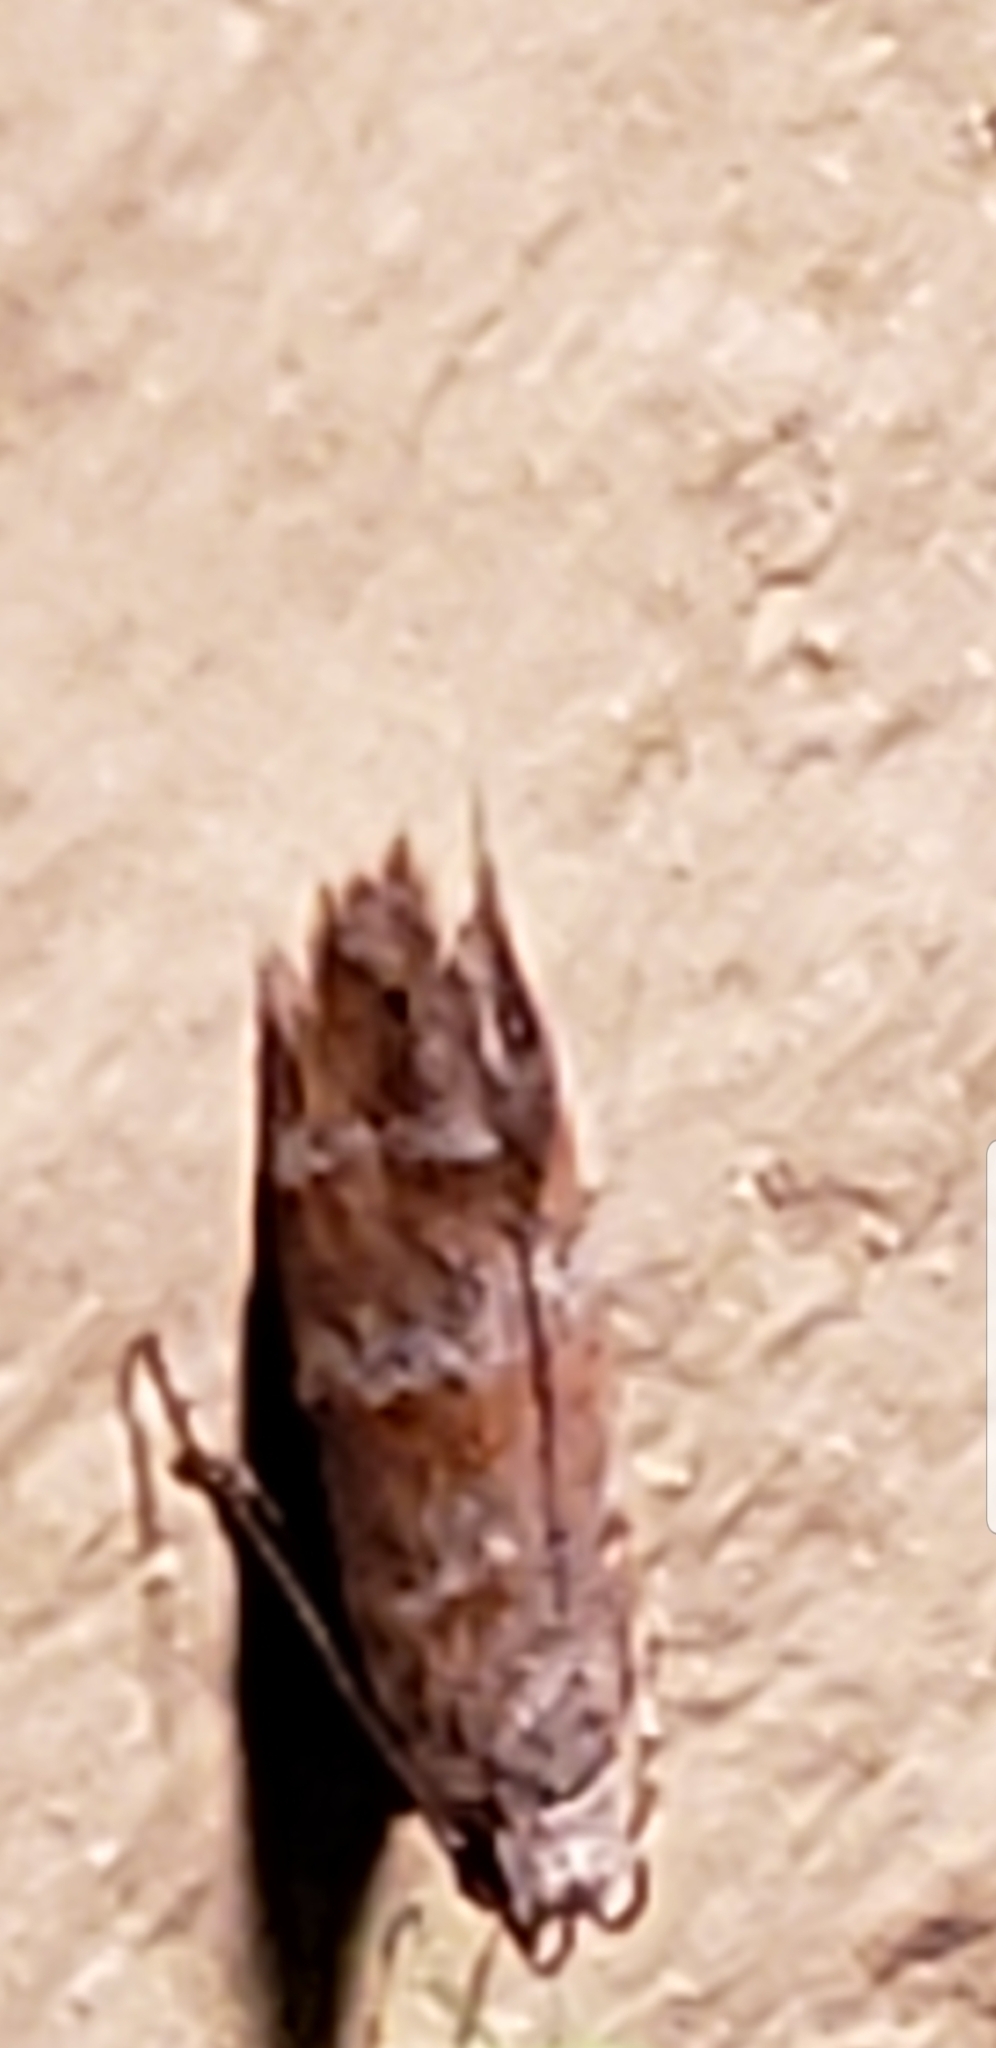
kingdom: Animalia
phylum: Arthropoda
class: Insecta
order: Lepidoptera
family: Gelechiidae
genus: Battaristis
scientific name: Battaristis vittella
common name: Orange stripe-backed moth
